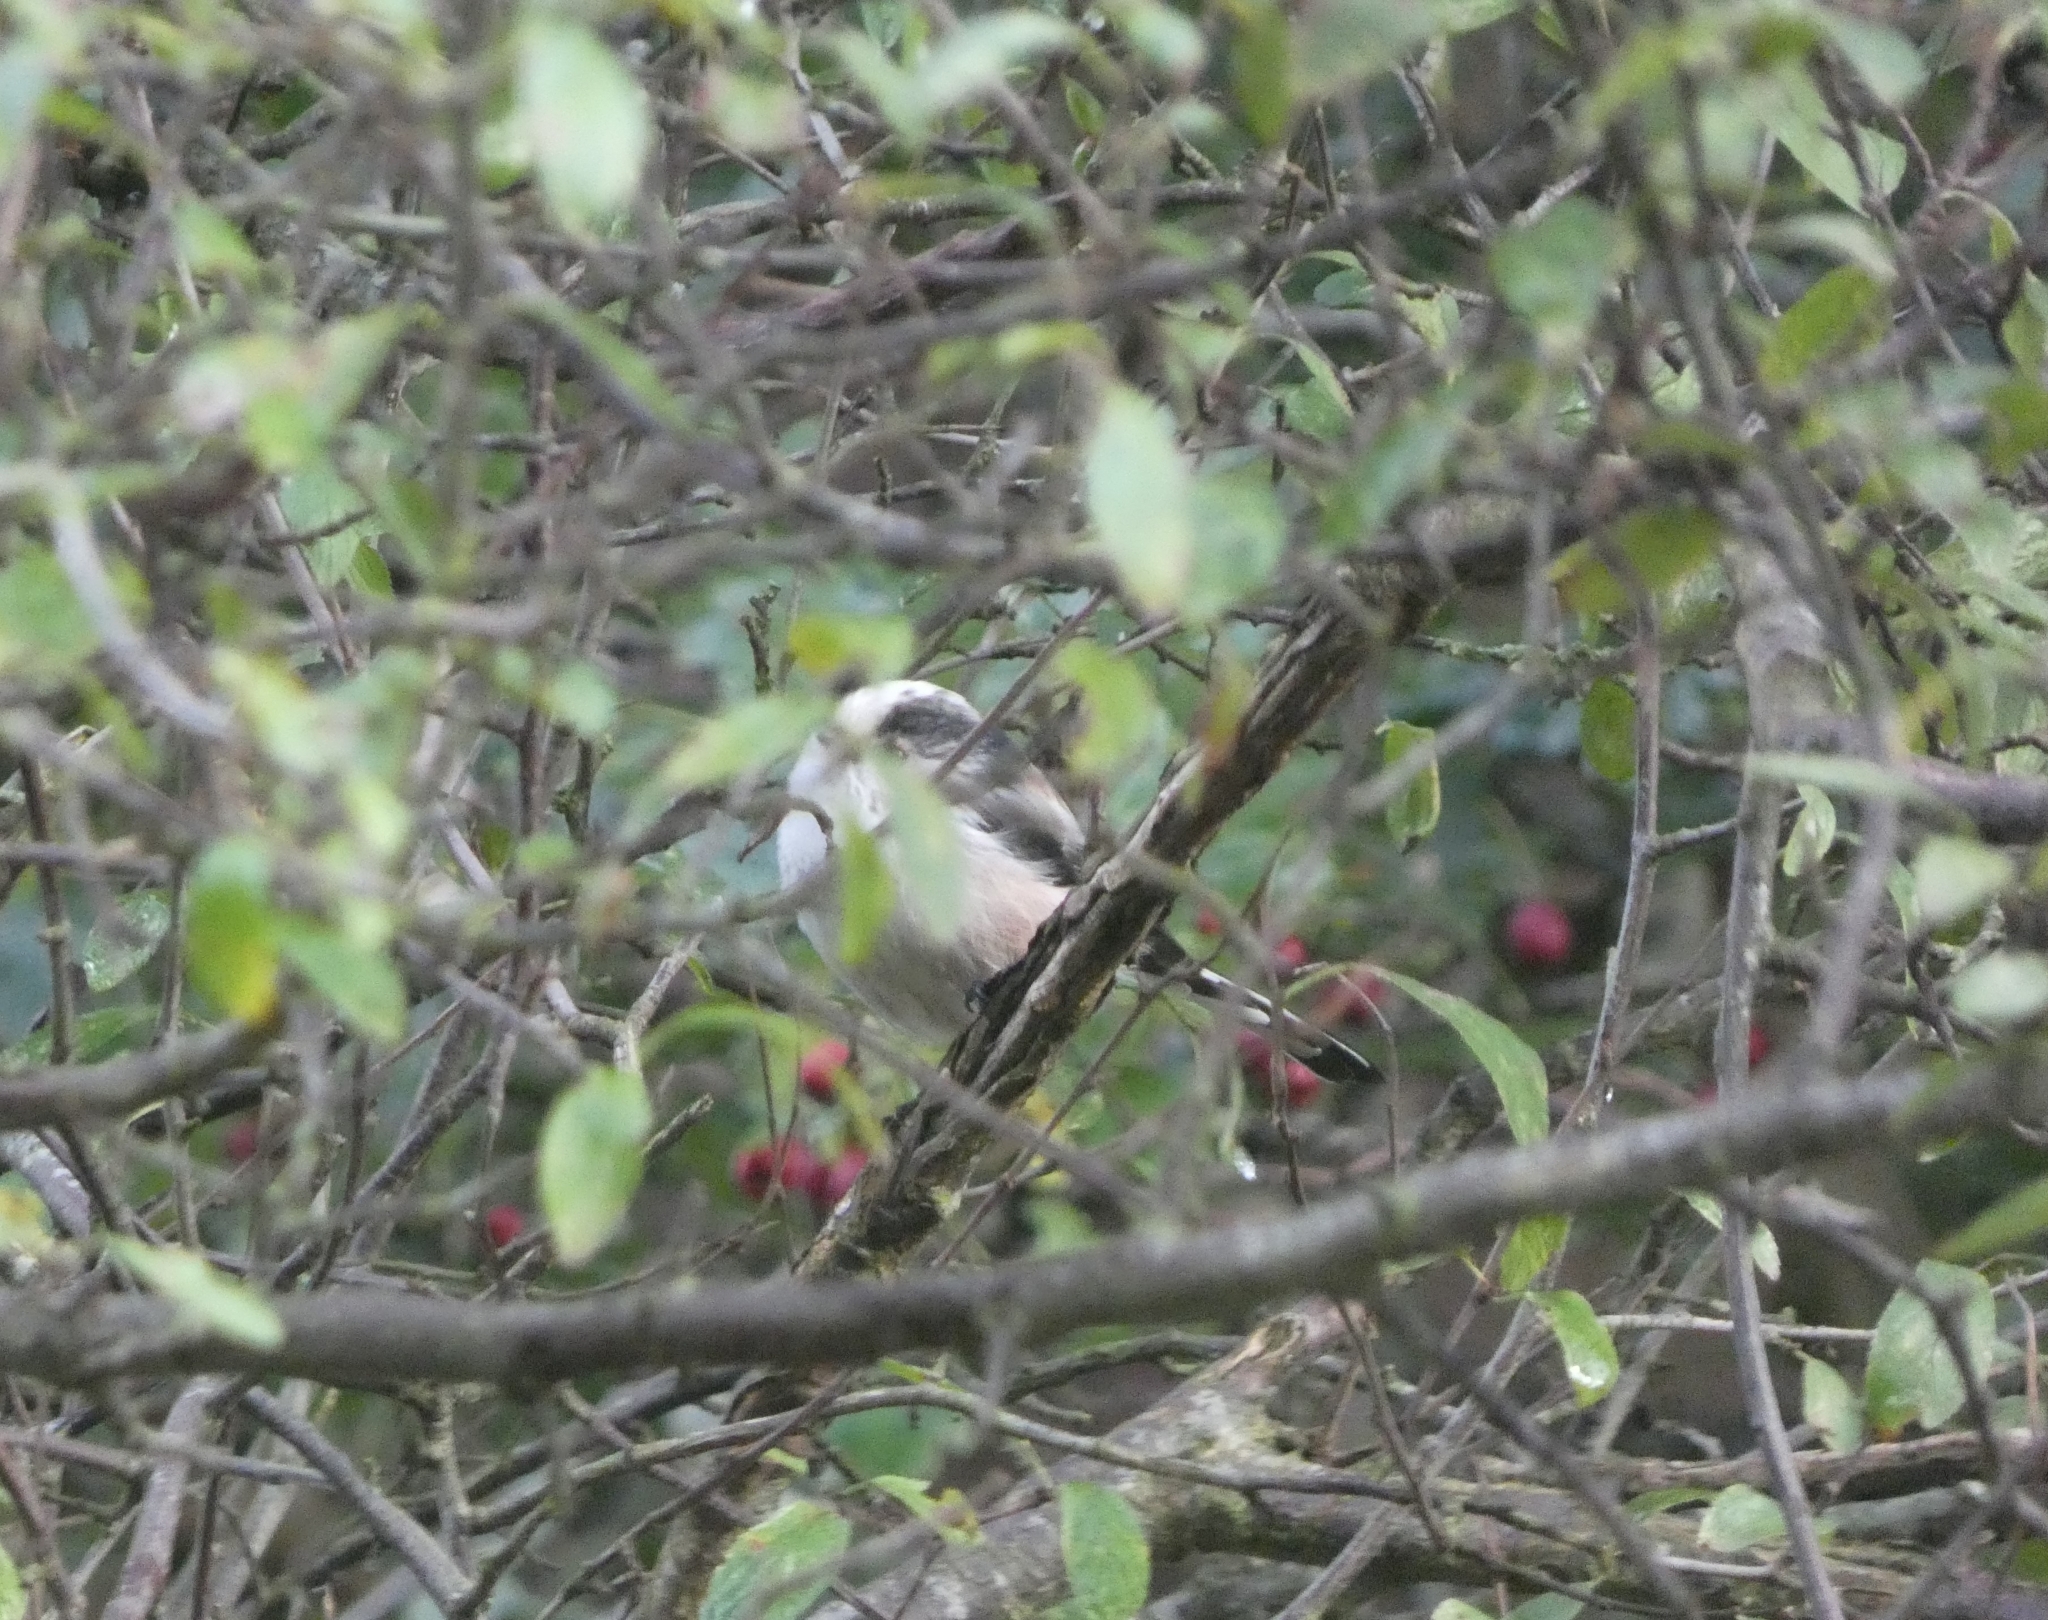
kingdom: Animalia
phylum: Chordata
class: Aves
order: Passeriformes
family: Aegithalidae
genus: Aegithalos
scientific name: Aegithalos caudatus
